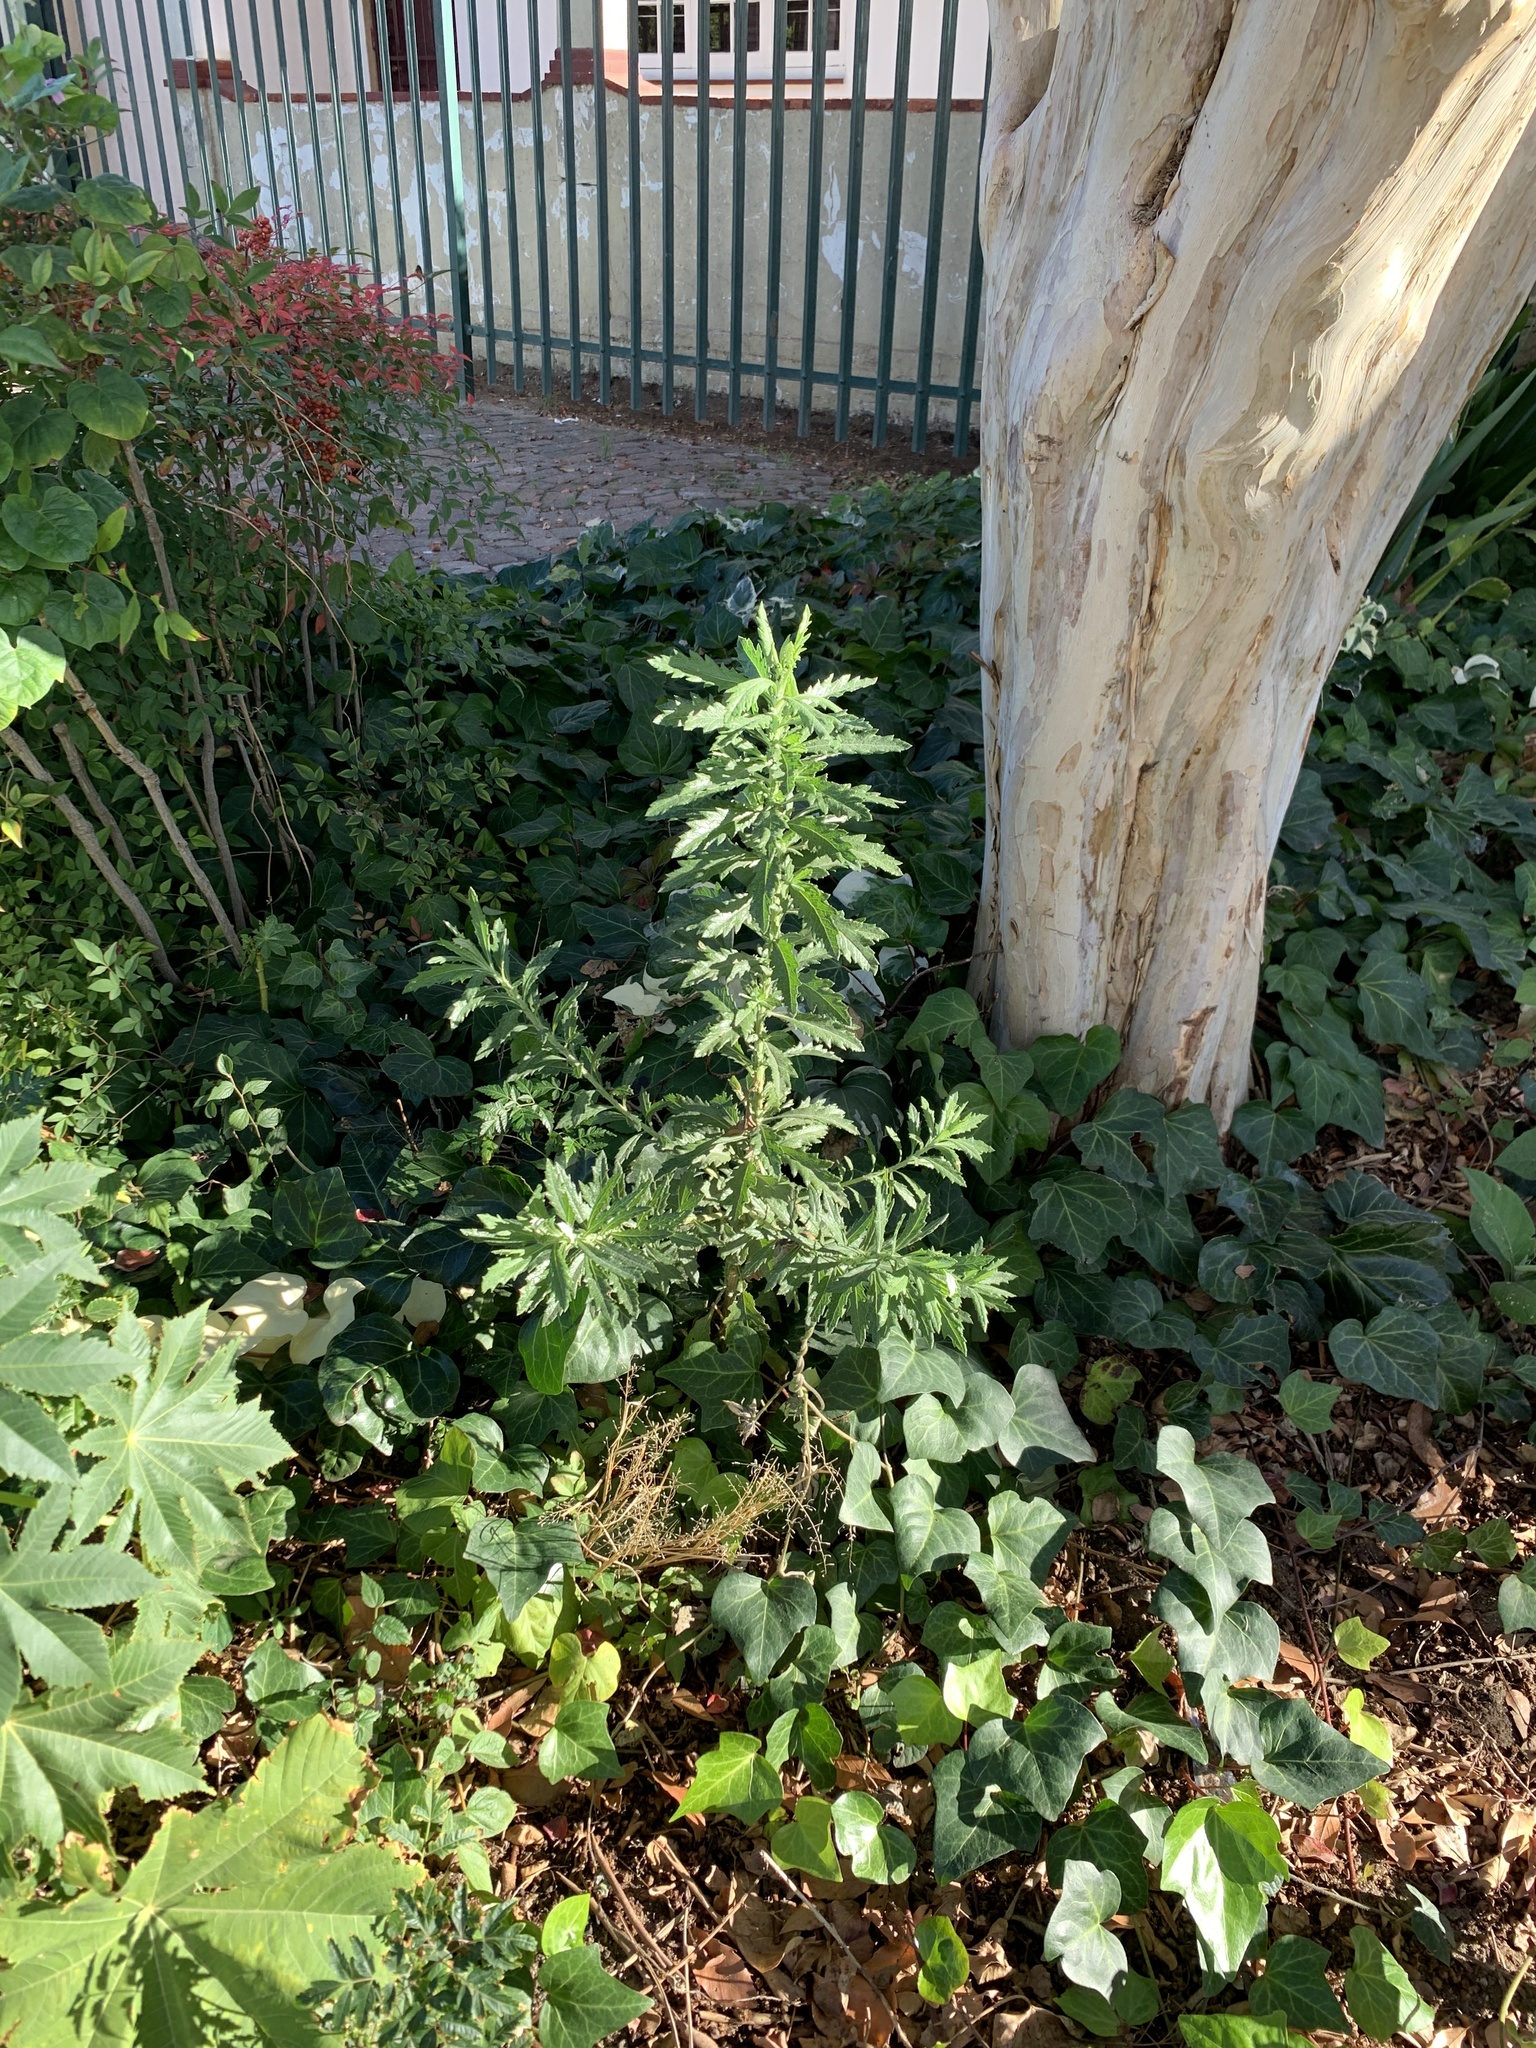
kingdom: Plantae
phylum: Tracheophyta
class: Magnoliopsida
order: Asterales
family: Asteraceae
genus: Senecio
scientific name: Senecio pterophorus
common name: Shoddy ragwort
